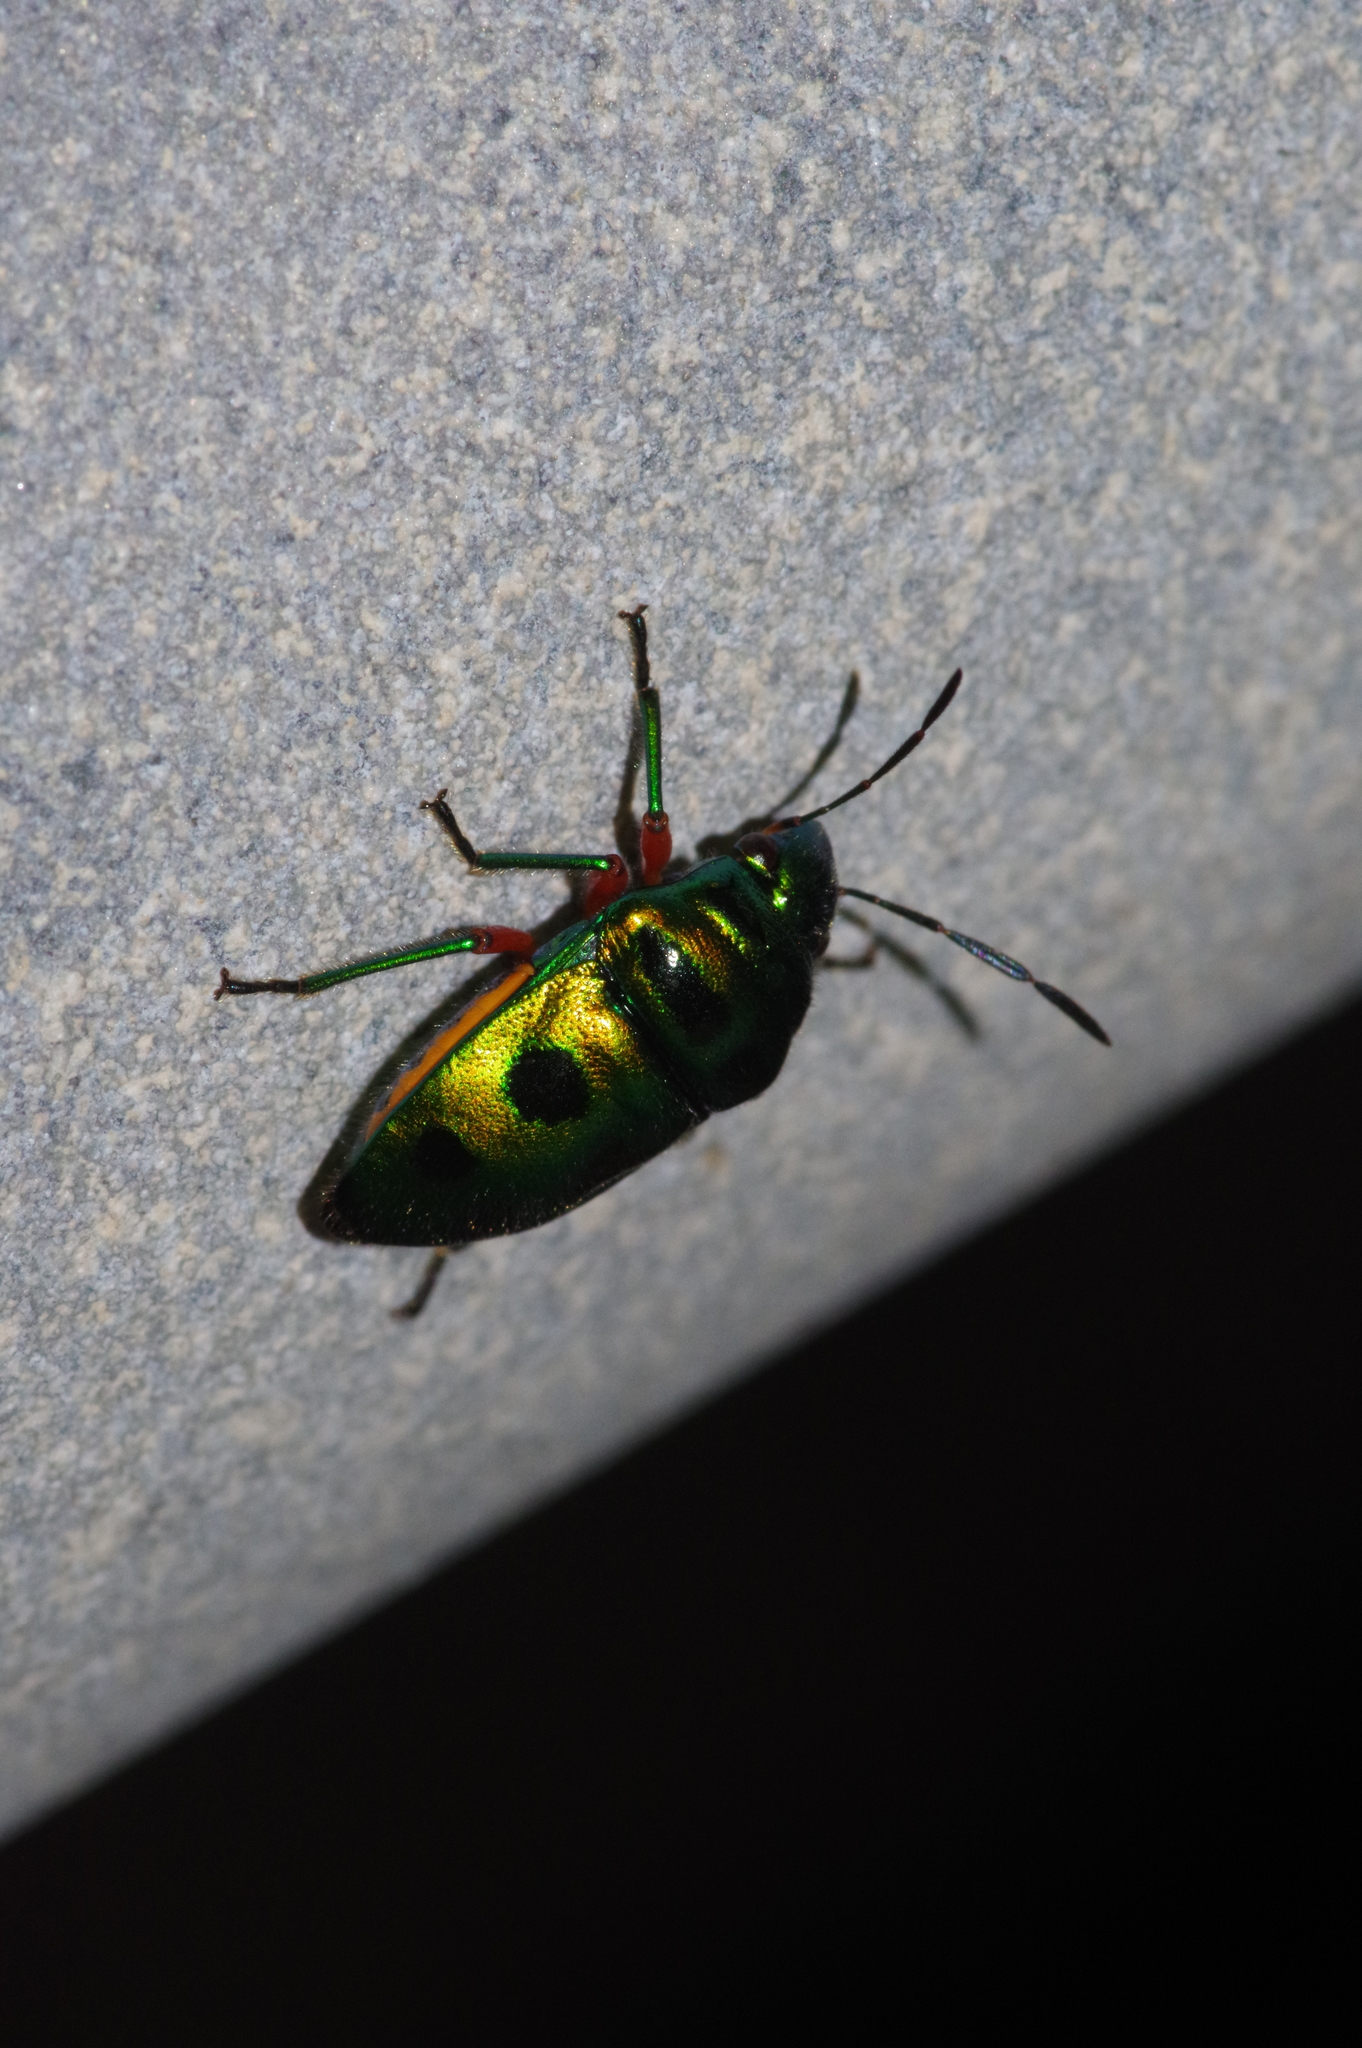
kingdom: Animalia
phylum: Arthropoda
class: Insecta
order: Hemiptera
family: Scutelleridae
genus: Lampromicra
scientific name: Lampromicra miyakona
